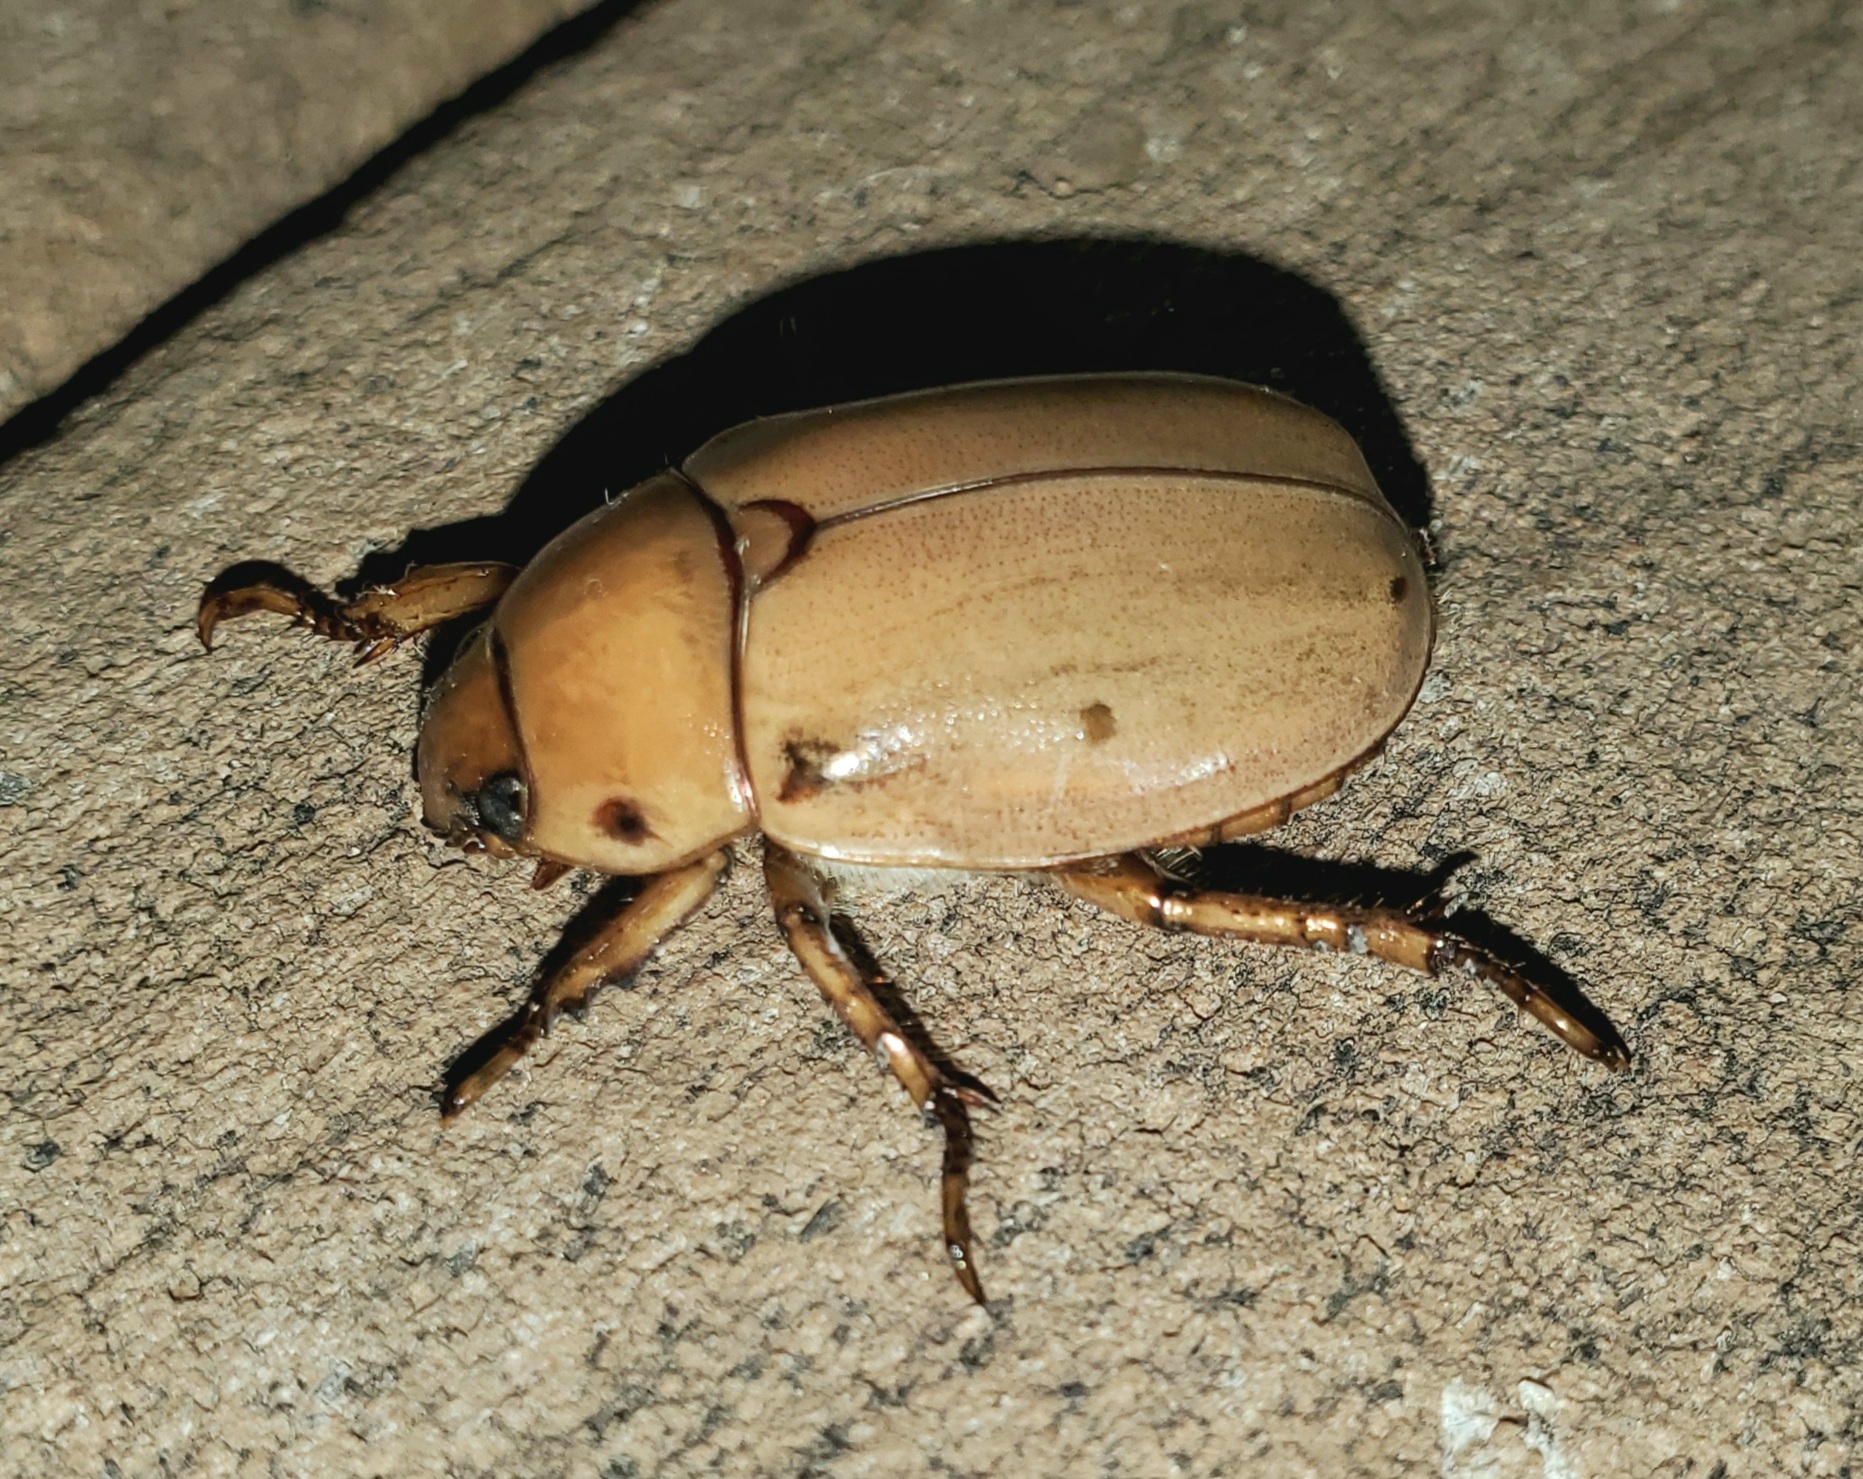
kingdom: Animalia
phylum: Arthropoda
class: Insecta
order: Coleoptera
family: Scarabaeidae
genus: Pelidnota
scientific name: Pelidnota punctata
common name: Grapevine beetle
